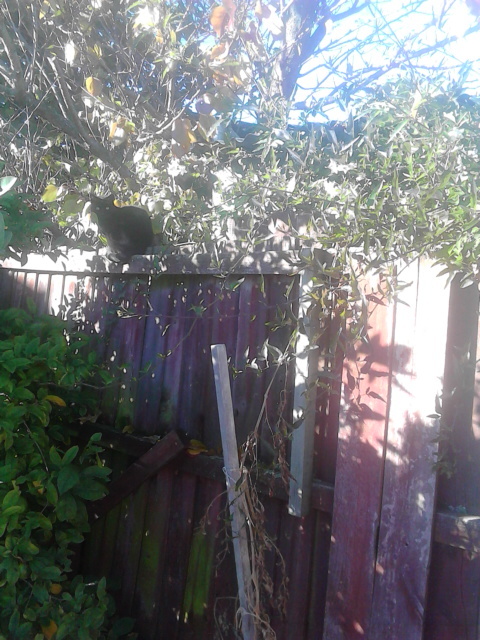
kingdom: Animalia
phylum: Chordata
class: Mammalia
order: Carnivora
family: Felidae
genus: Felis
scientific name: Felis catus
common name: Domestic cat
